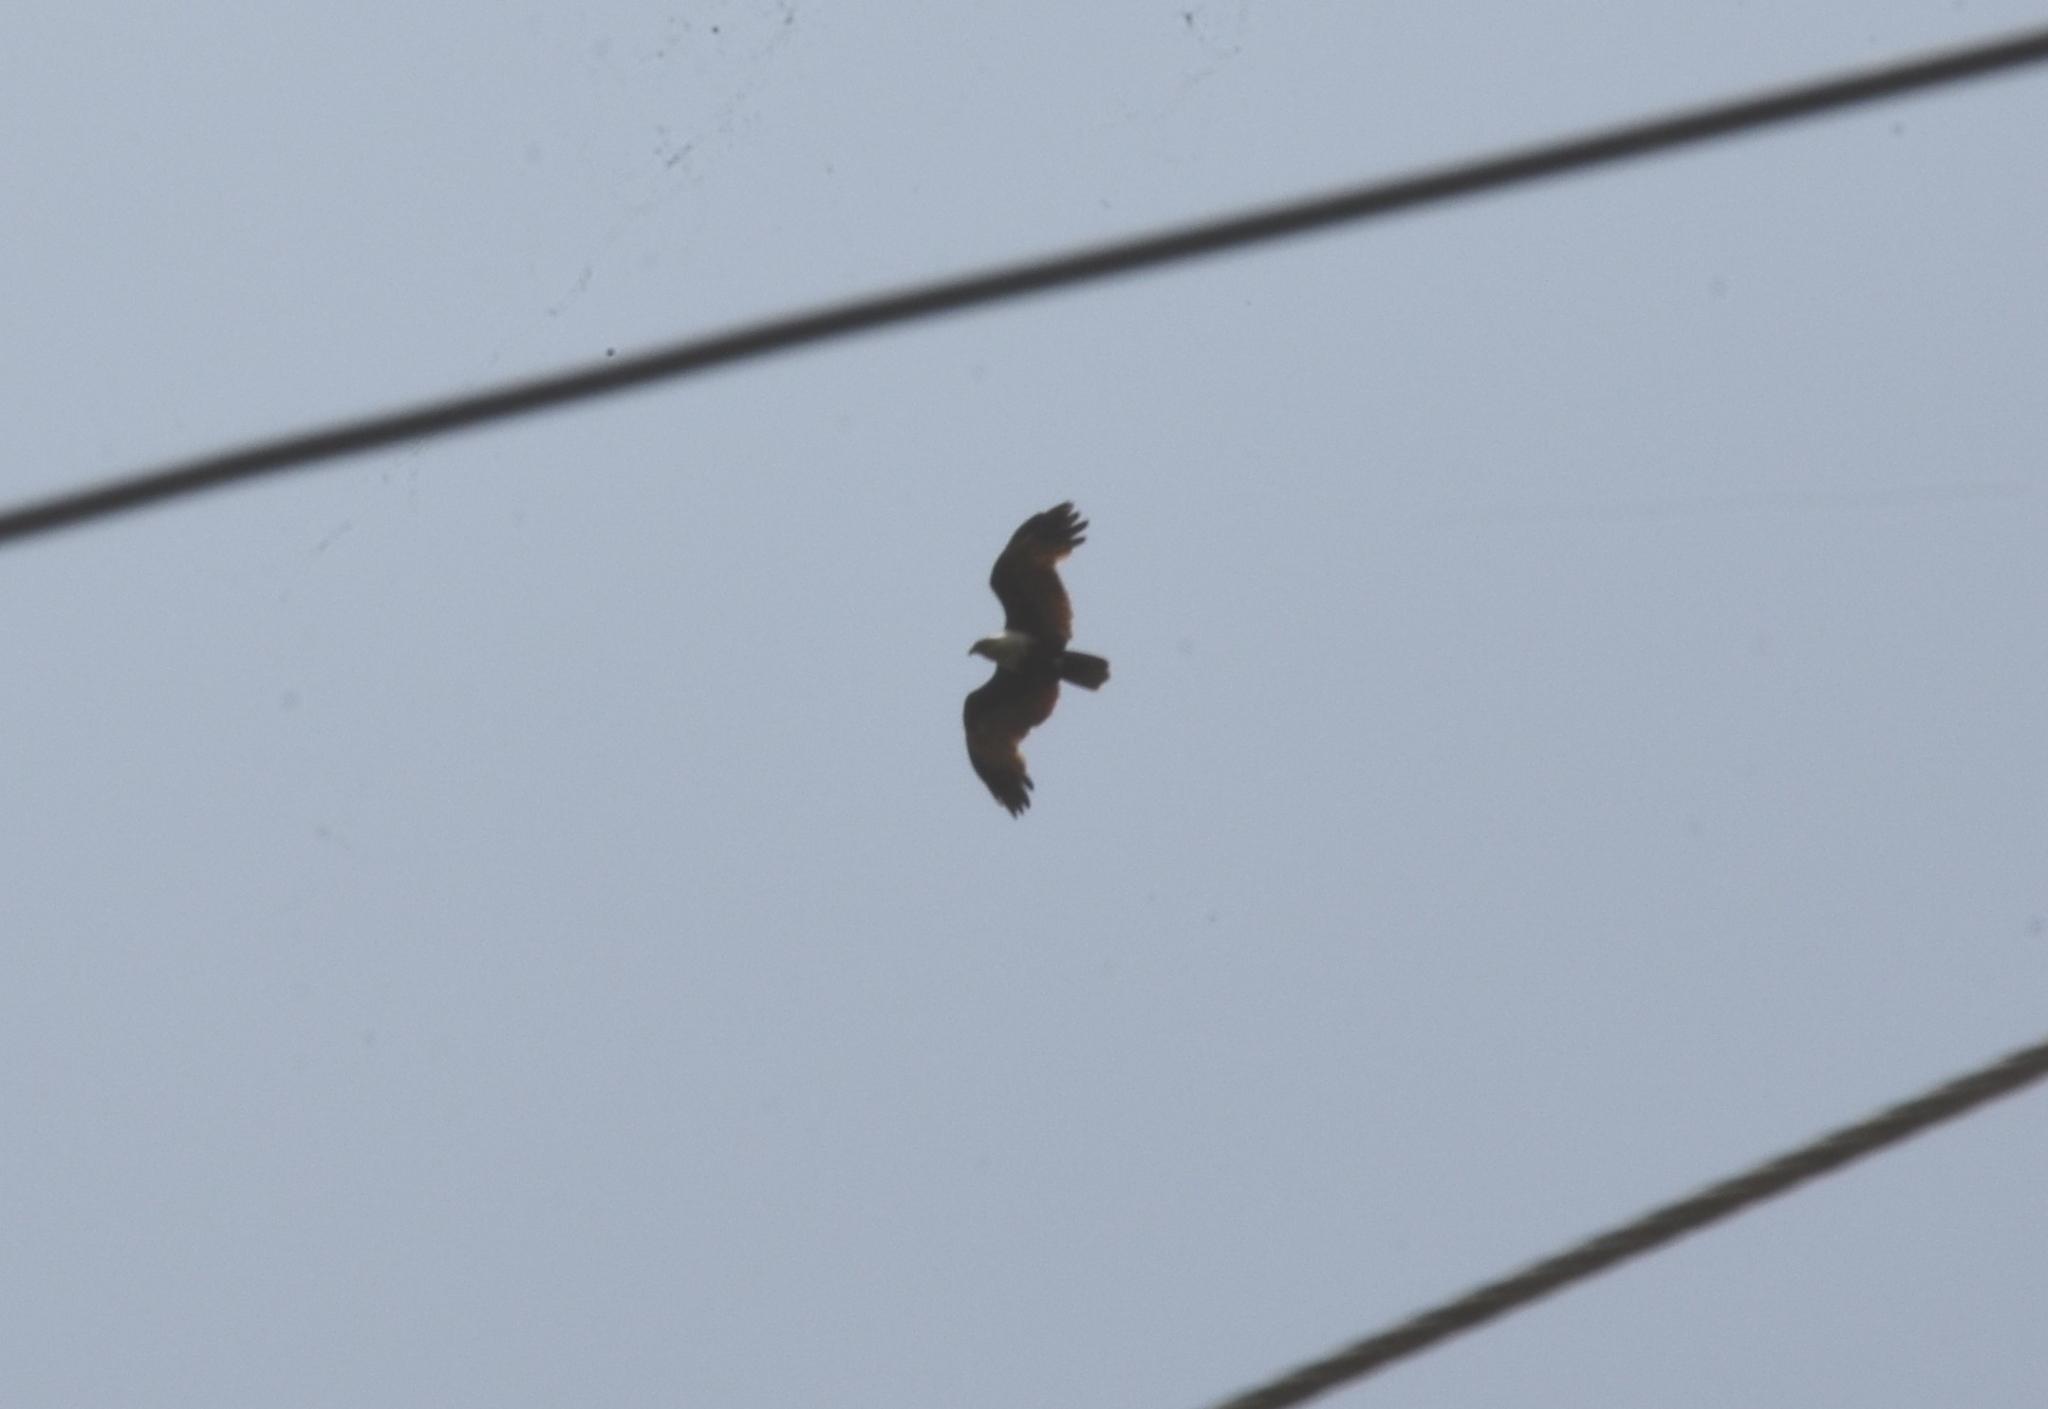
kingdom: Animalia
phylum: Chordata
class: Aves
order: Accipitriformes
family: Accipitridae
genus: Haliastur
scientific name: Haliastur indus
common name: Brahminy kite
